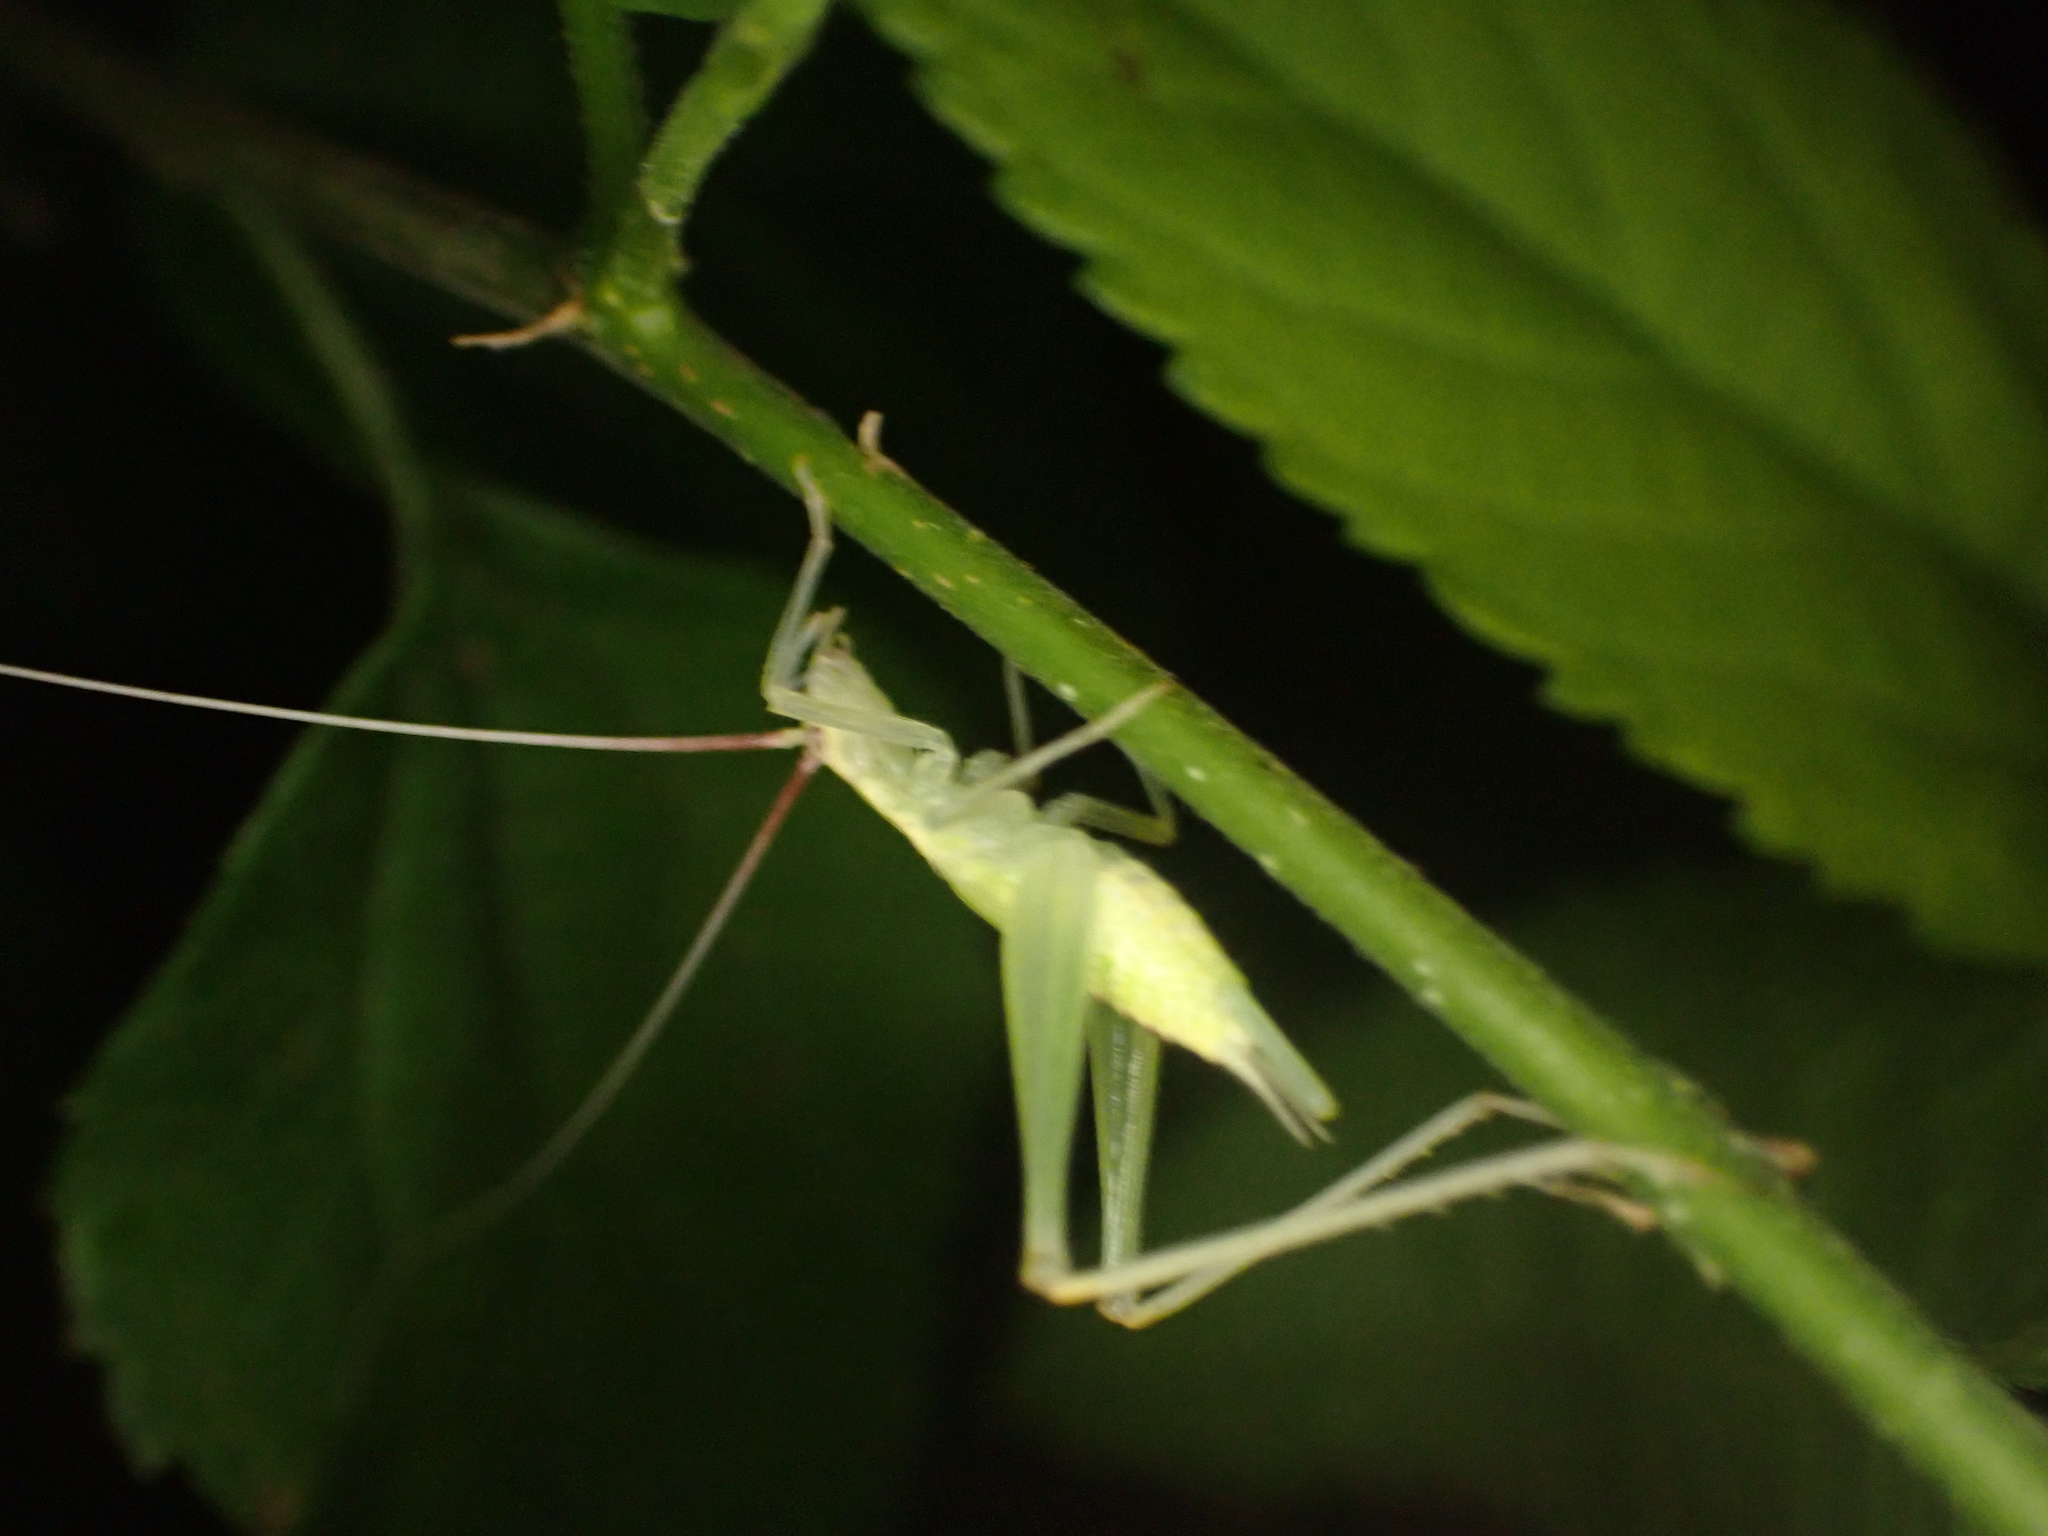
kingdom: Animalia
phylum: Arthropoda
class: Insecta
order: Orthoptera
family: Gryllidae
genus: Oecanthus
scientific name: Oecanthus latipennis
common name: Broad-winged tree cricket
